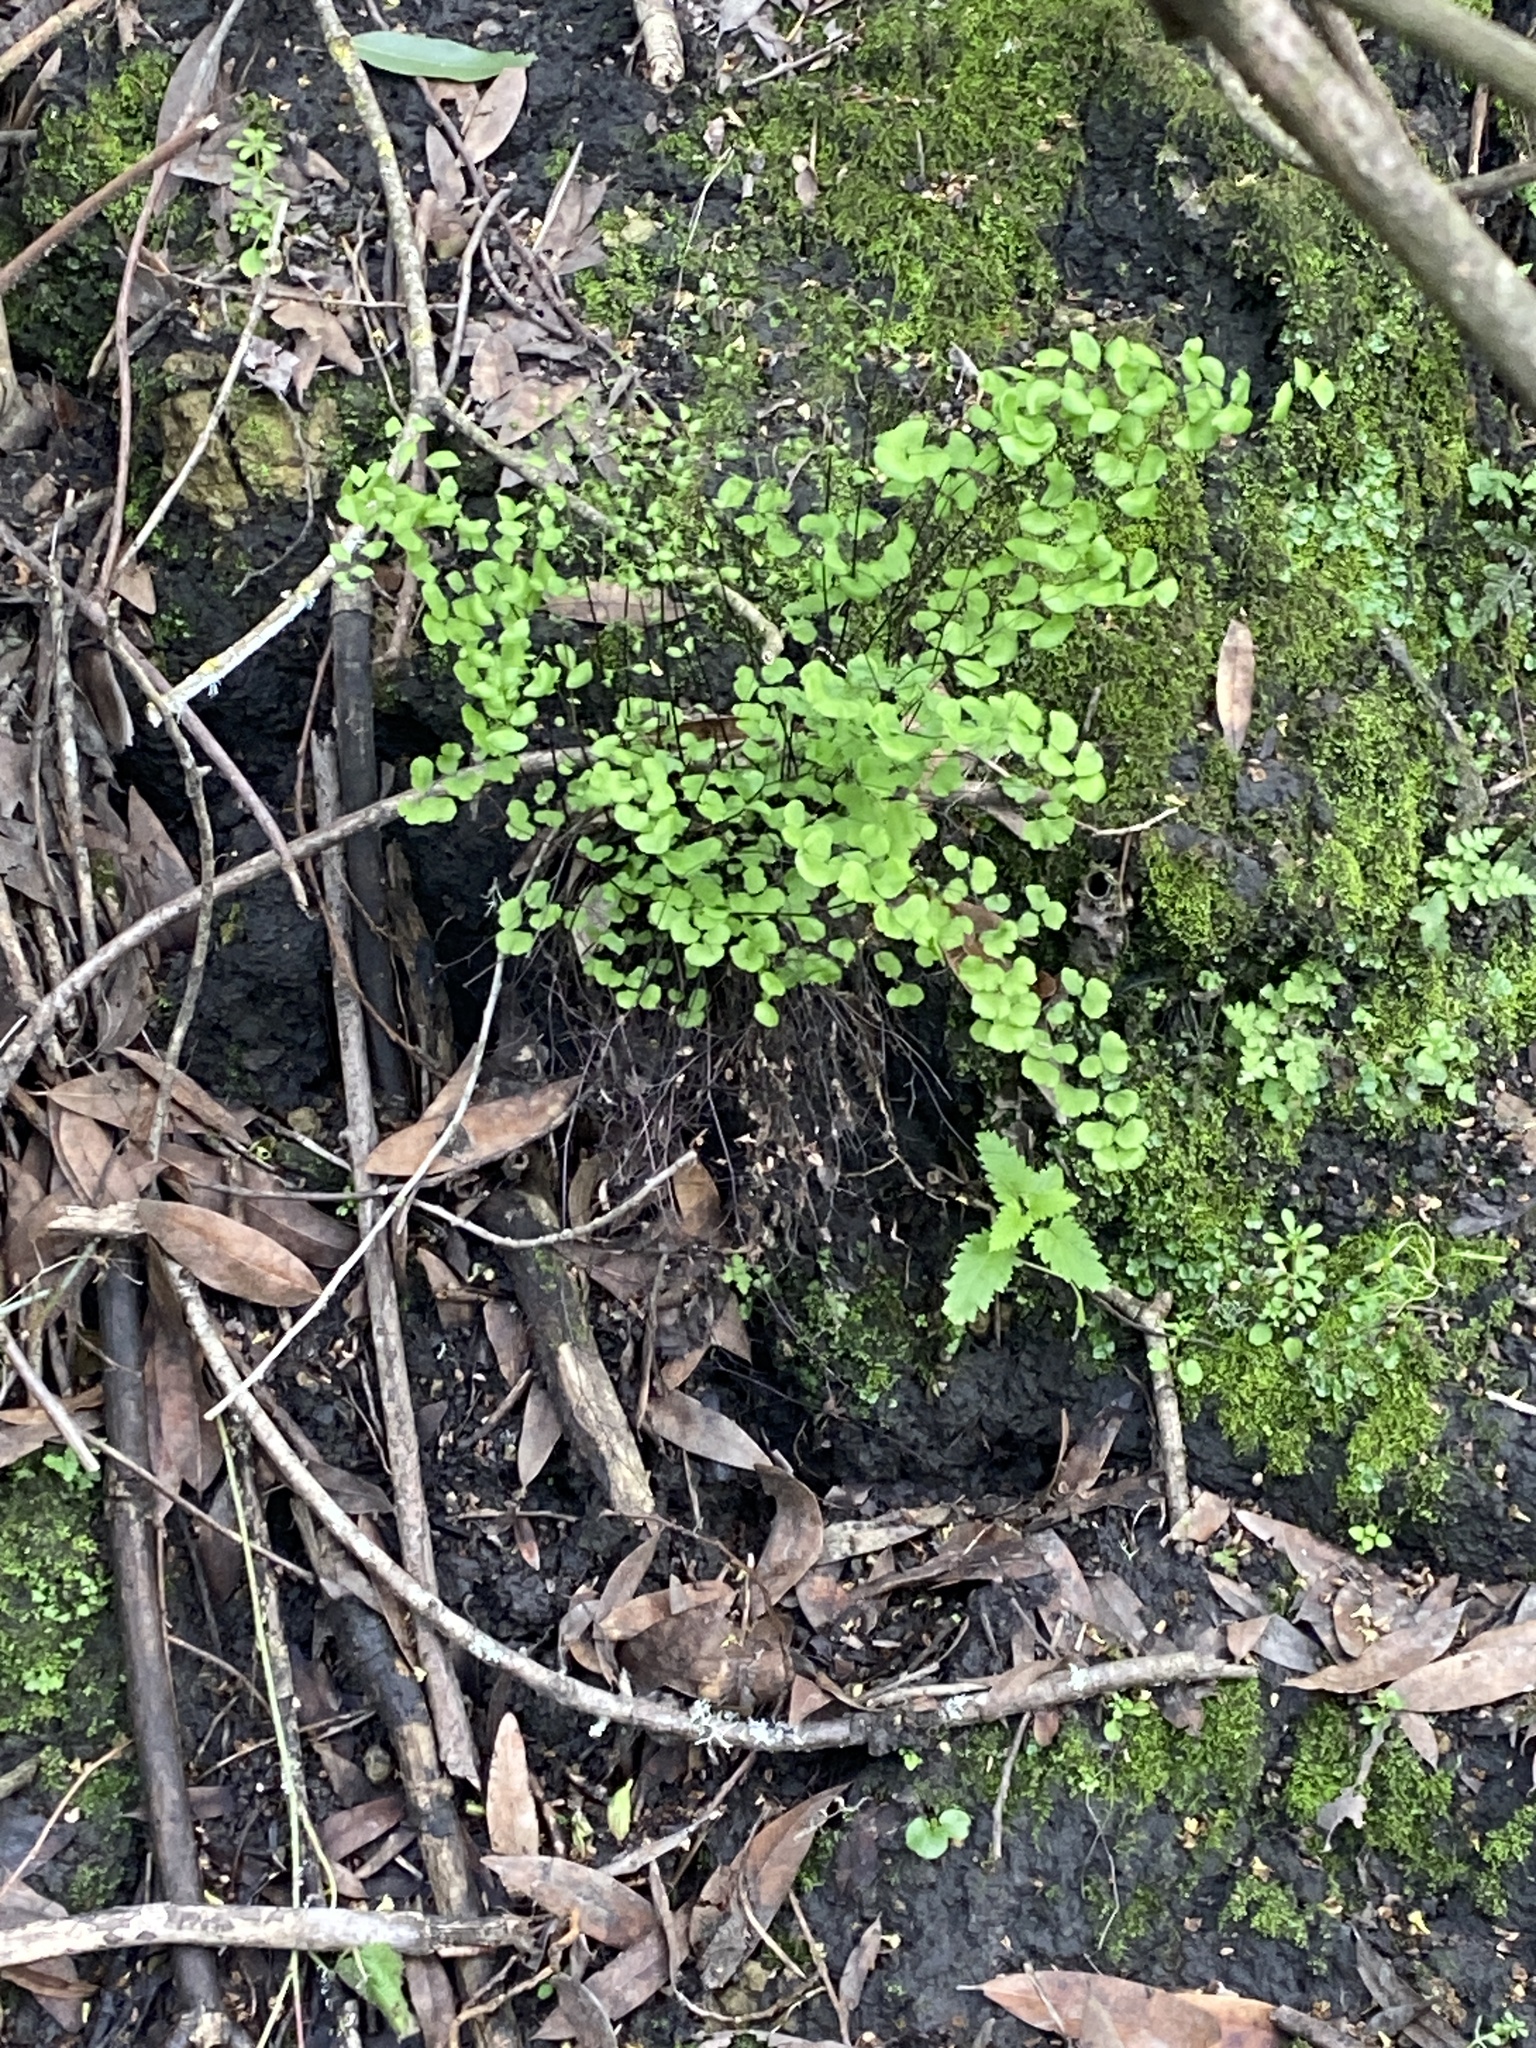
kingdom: Plantae
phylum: Tracheophyta
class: Polypodiopsida
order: Polypodiales
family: Pteridaceae
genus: Adiantum
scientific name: Adiantum jordanii
